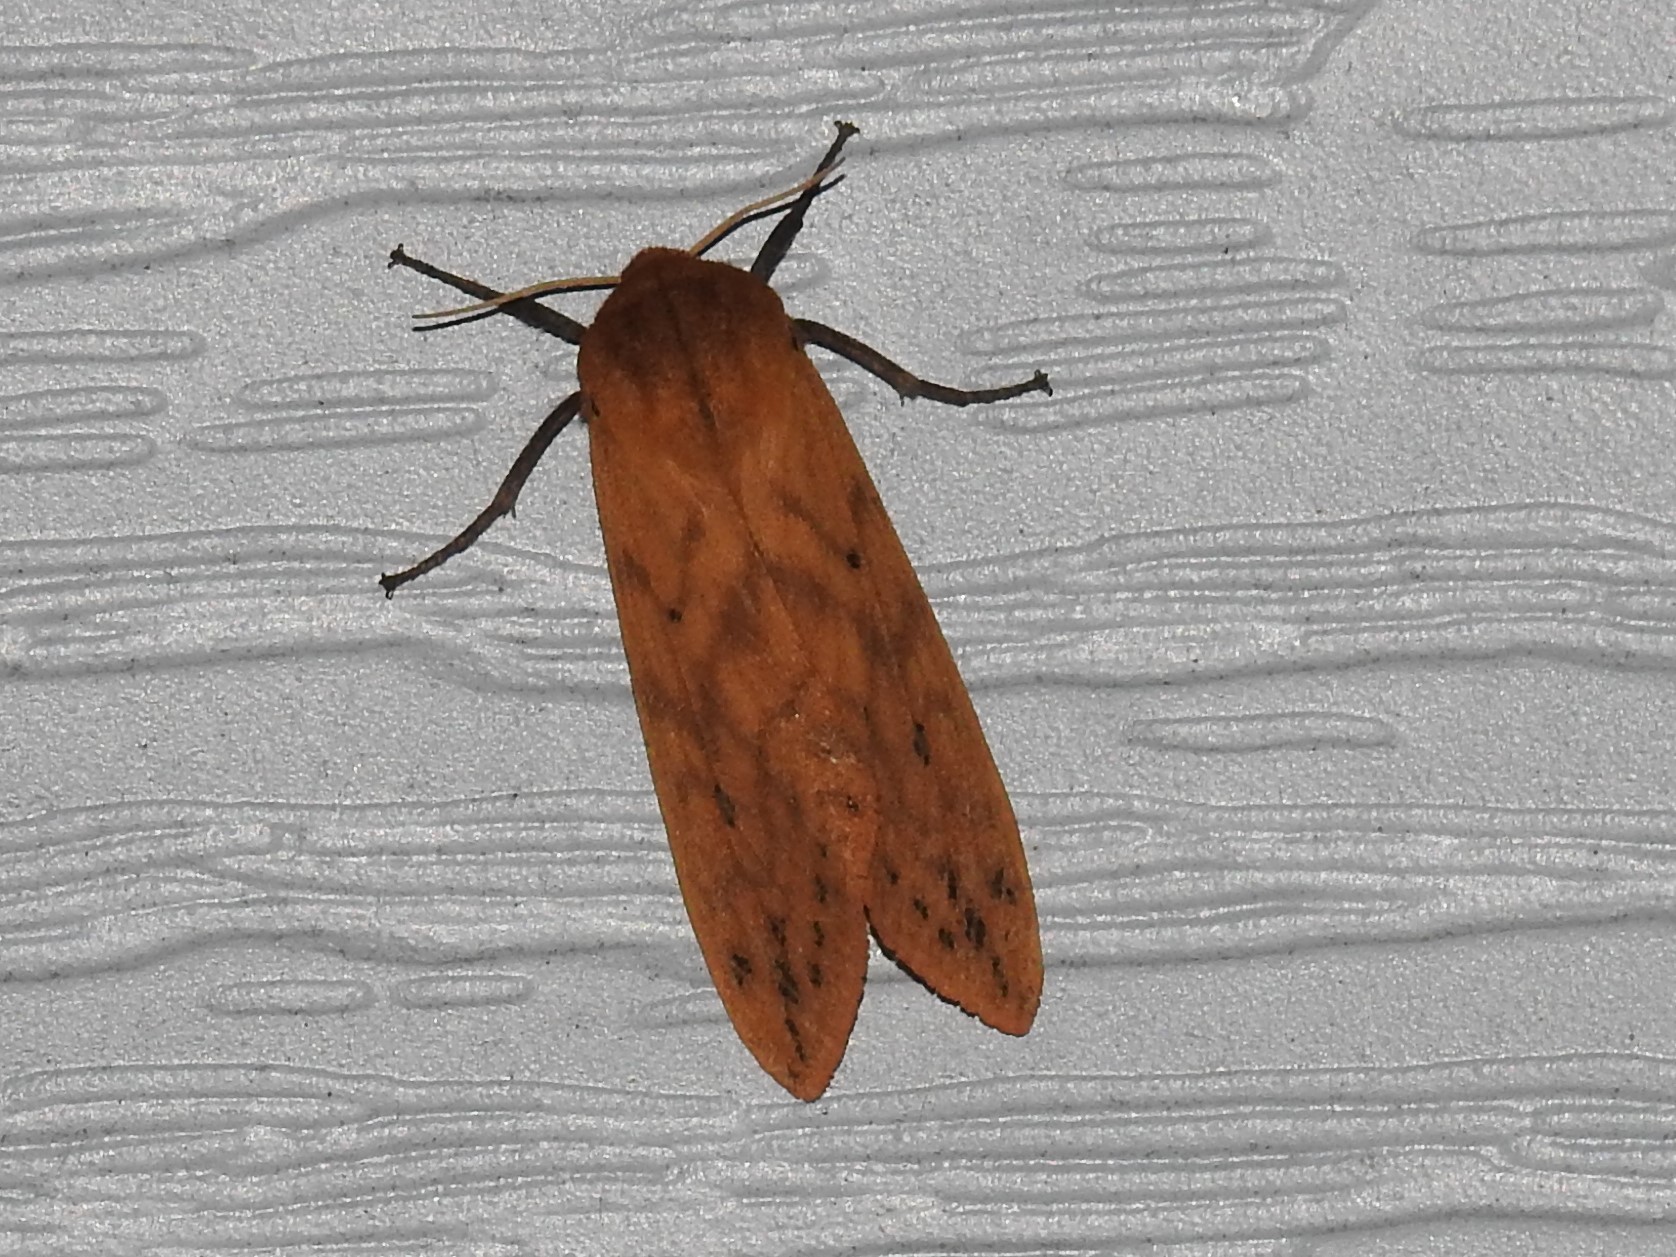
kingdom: Animalia
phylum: Arthropoda
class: Insecta
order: Lepidoptera
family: Erebidae
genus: Pyrrharctia
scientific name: Pyrrharctia isabella
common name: Isabella tiger moth
